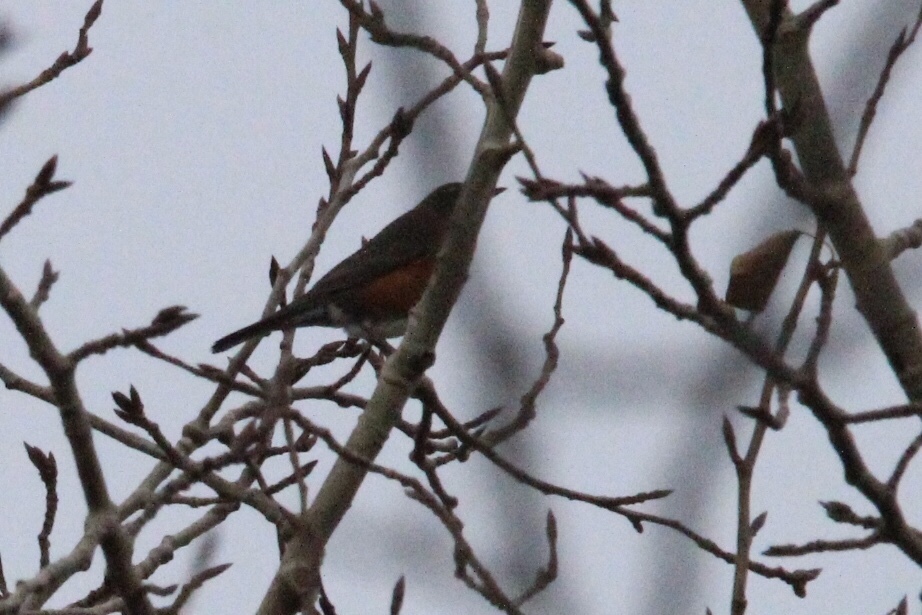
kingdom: Animalia
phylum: Chordata
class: Aves
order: Passeriformes
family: Turdidae
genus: Turdus
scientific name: Turdus migratorius
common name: American robin
